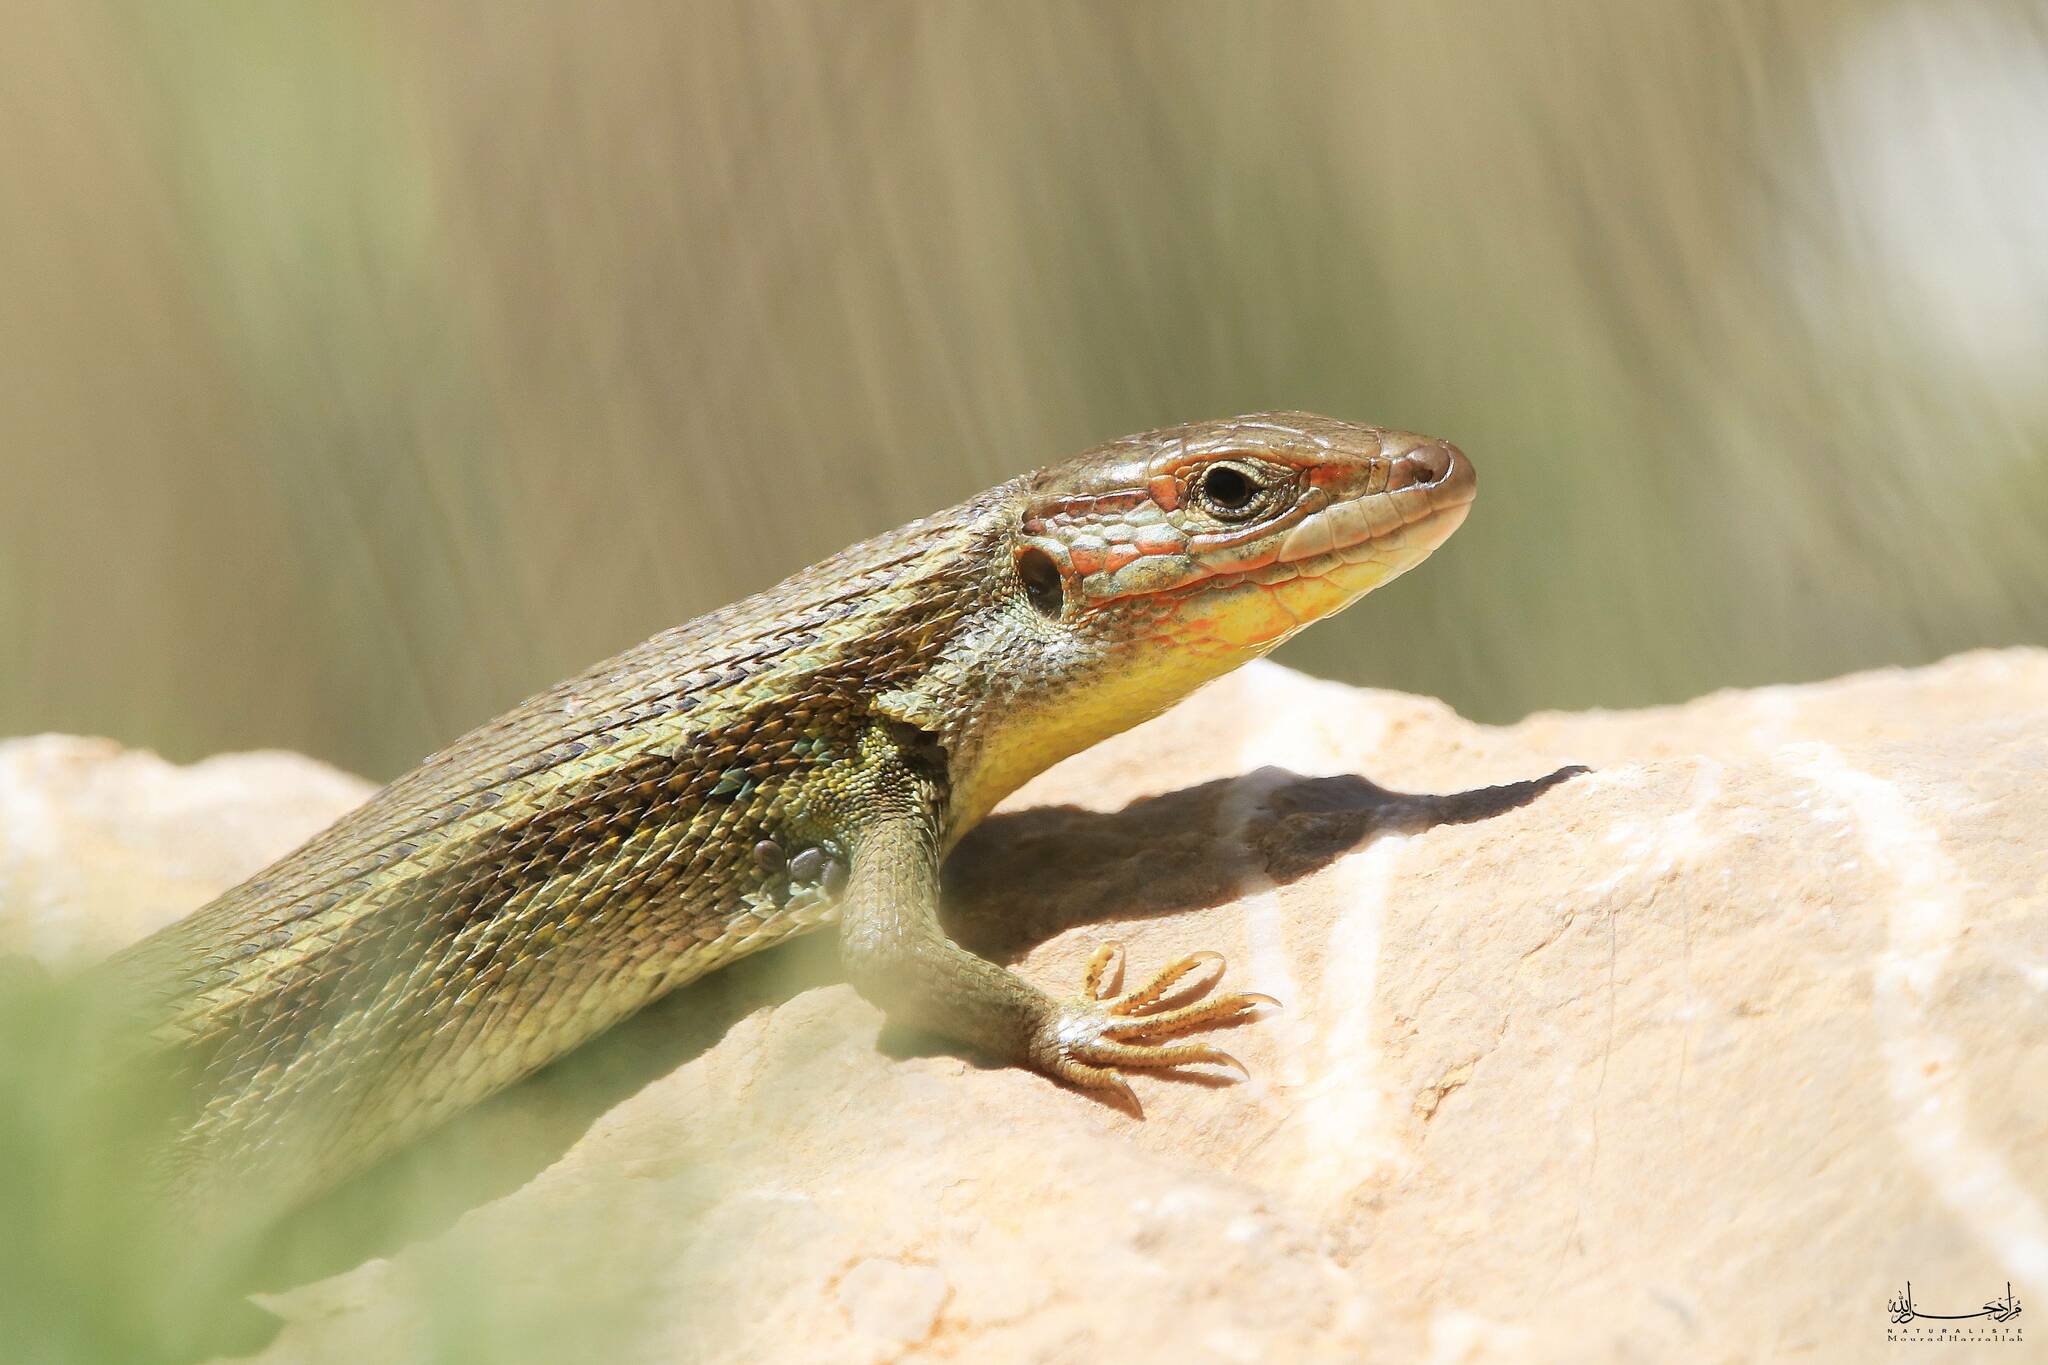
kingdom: Animalia
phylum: Chordata
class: Squamata
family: Lacertidae
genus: Psammodromus
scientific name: Psammodromus algirus
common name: Algerian psammodromus
